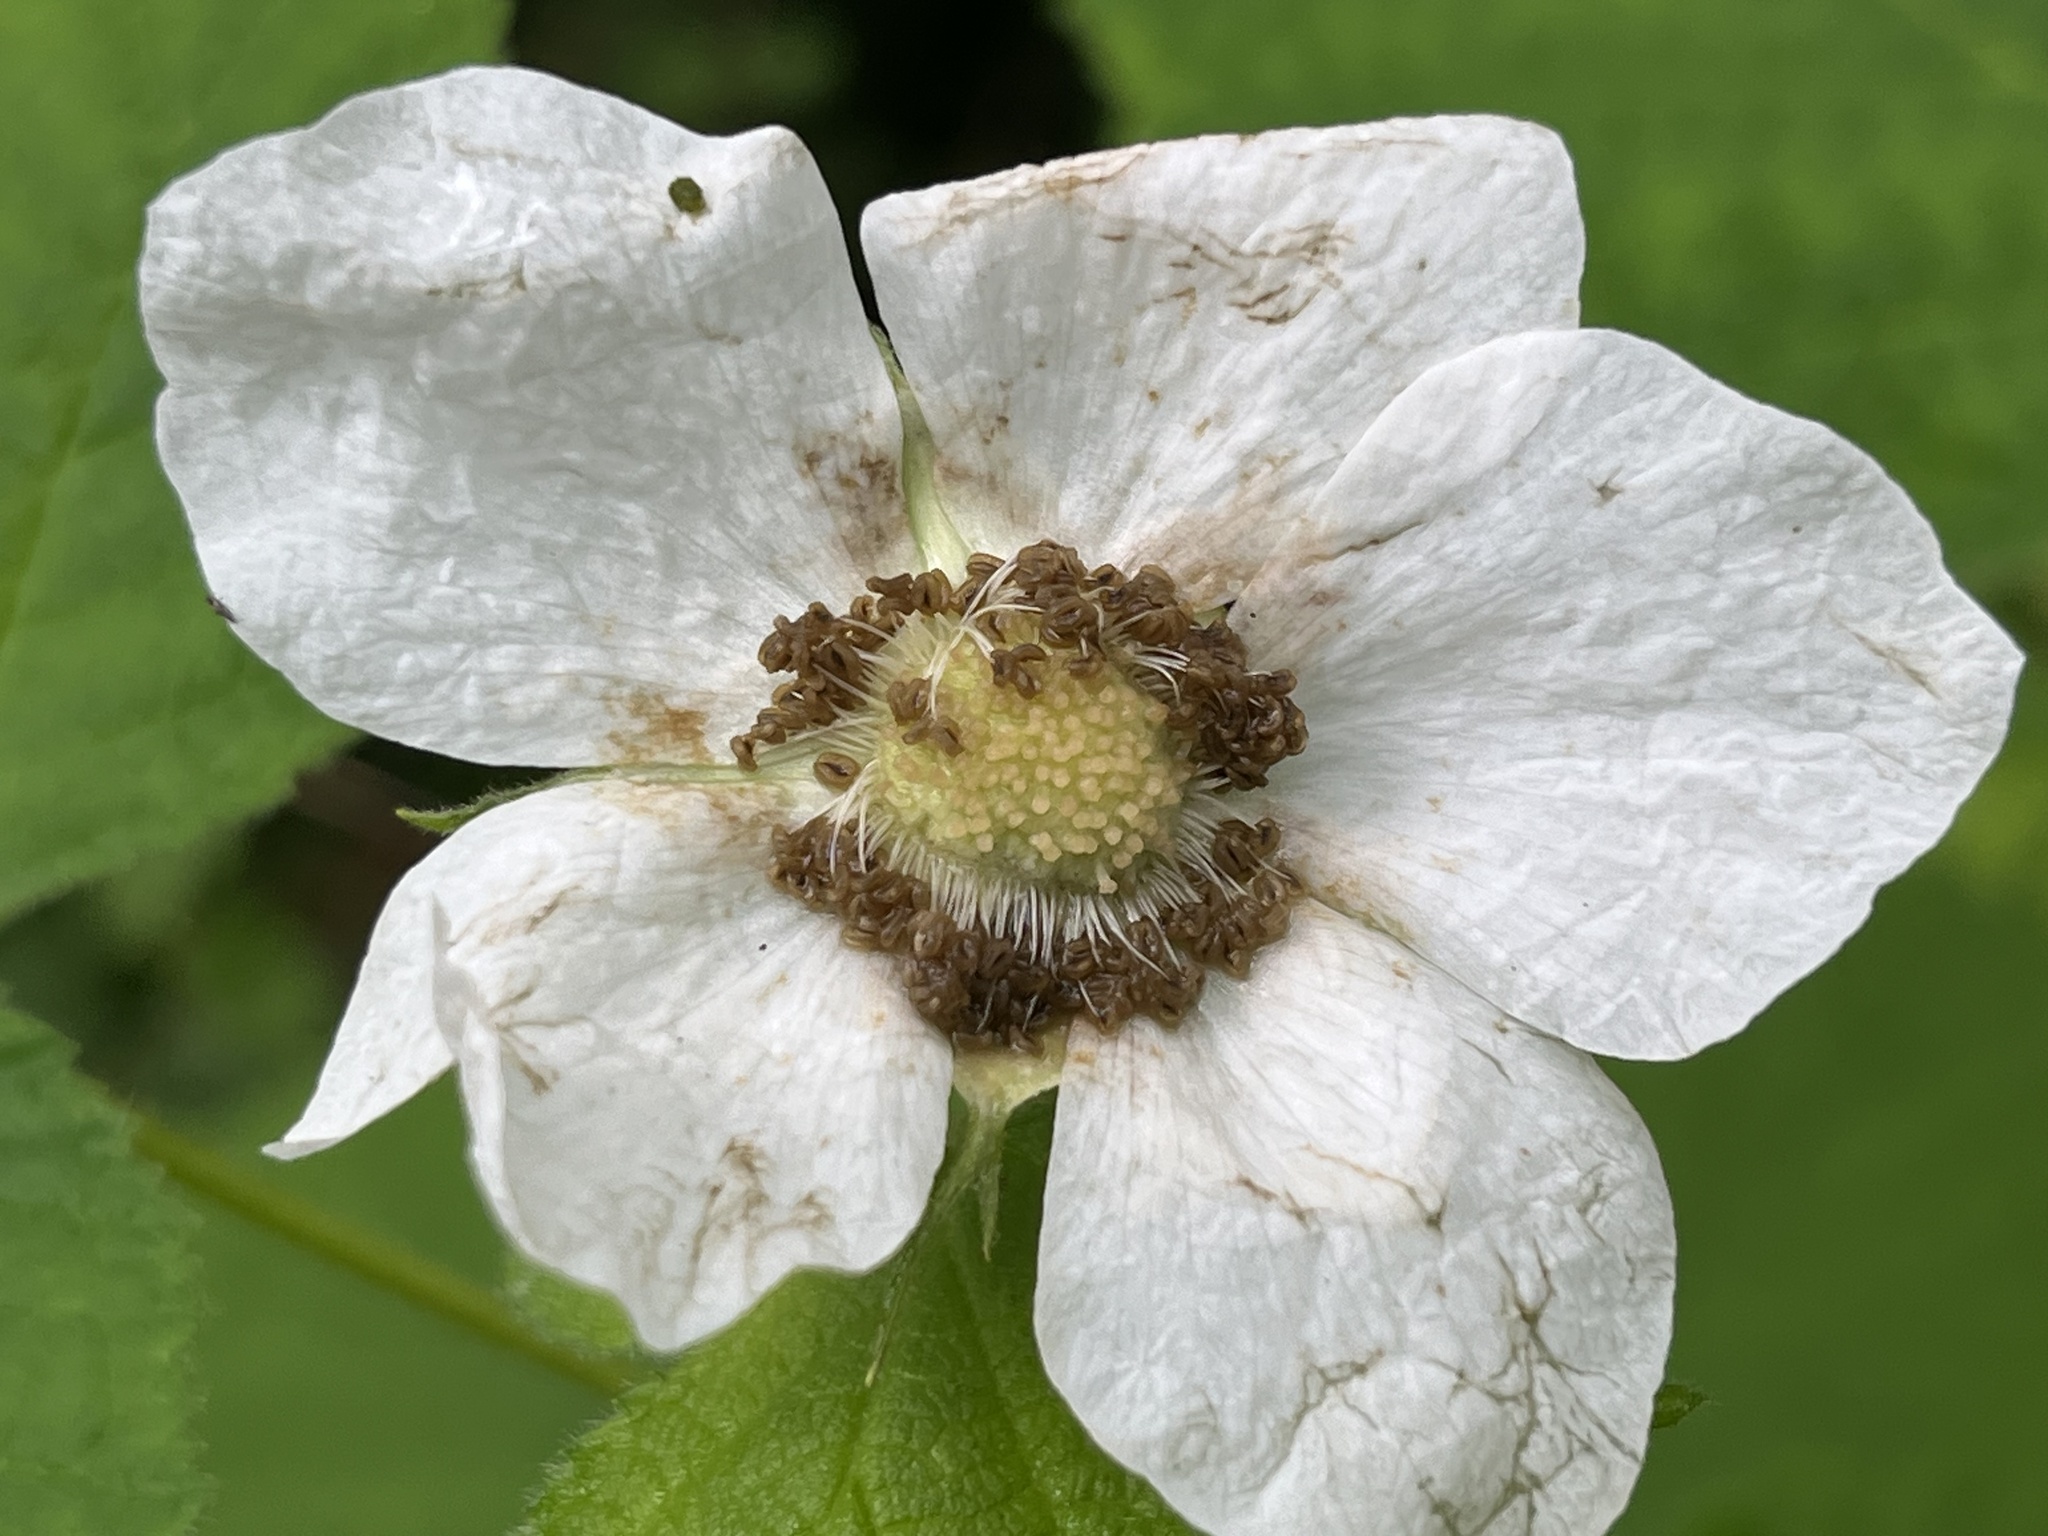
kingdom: Plantae
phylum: Tracheophyta
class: Magnoliopsida
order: Rosales
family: Rosaceae
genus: Rubus
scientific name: Rubus parviflorus
